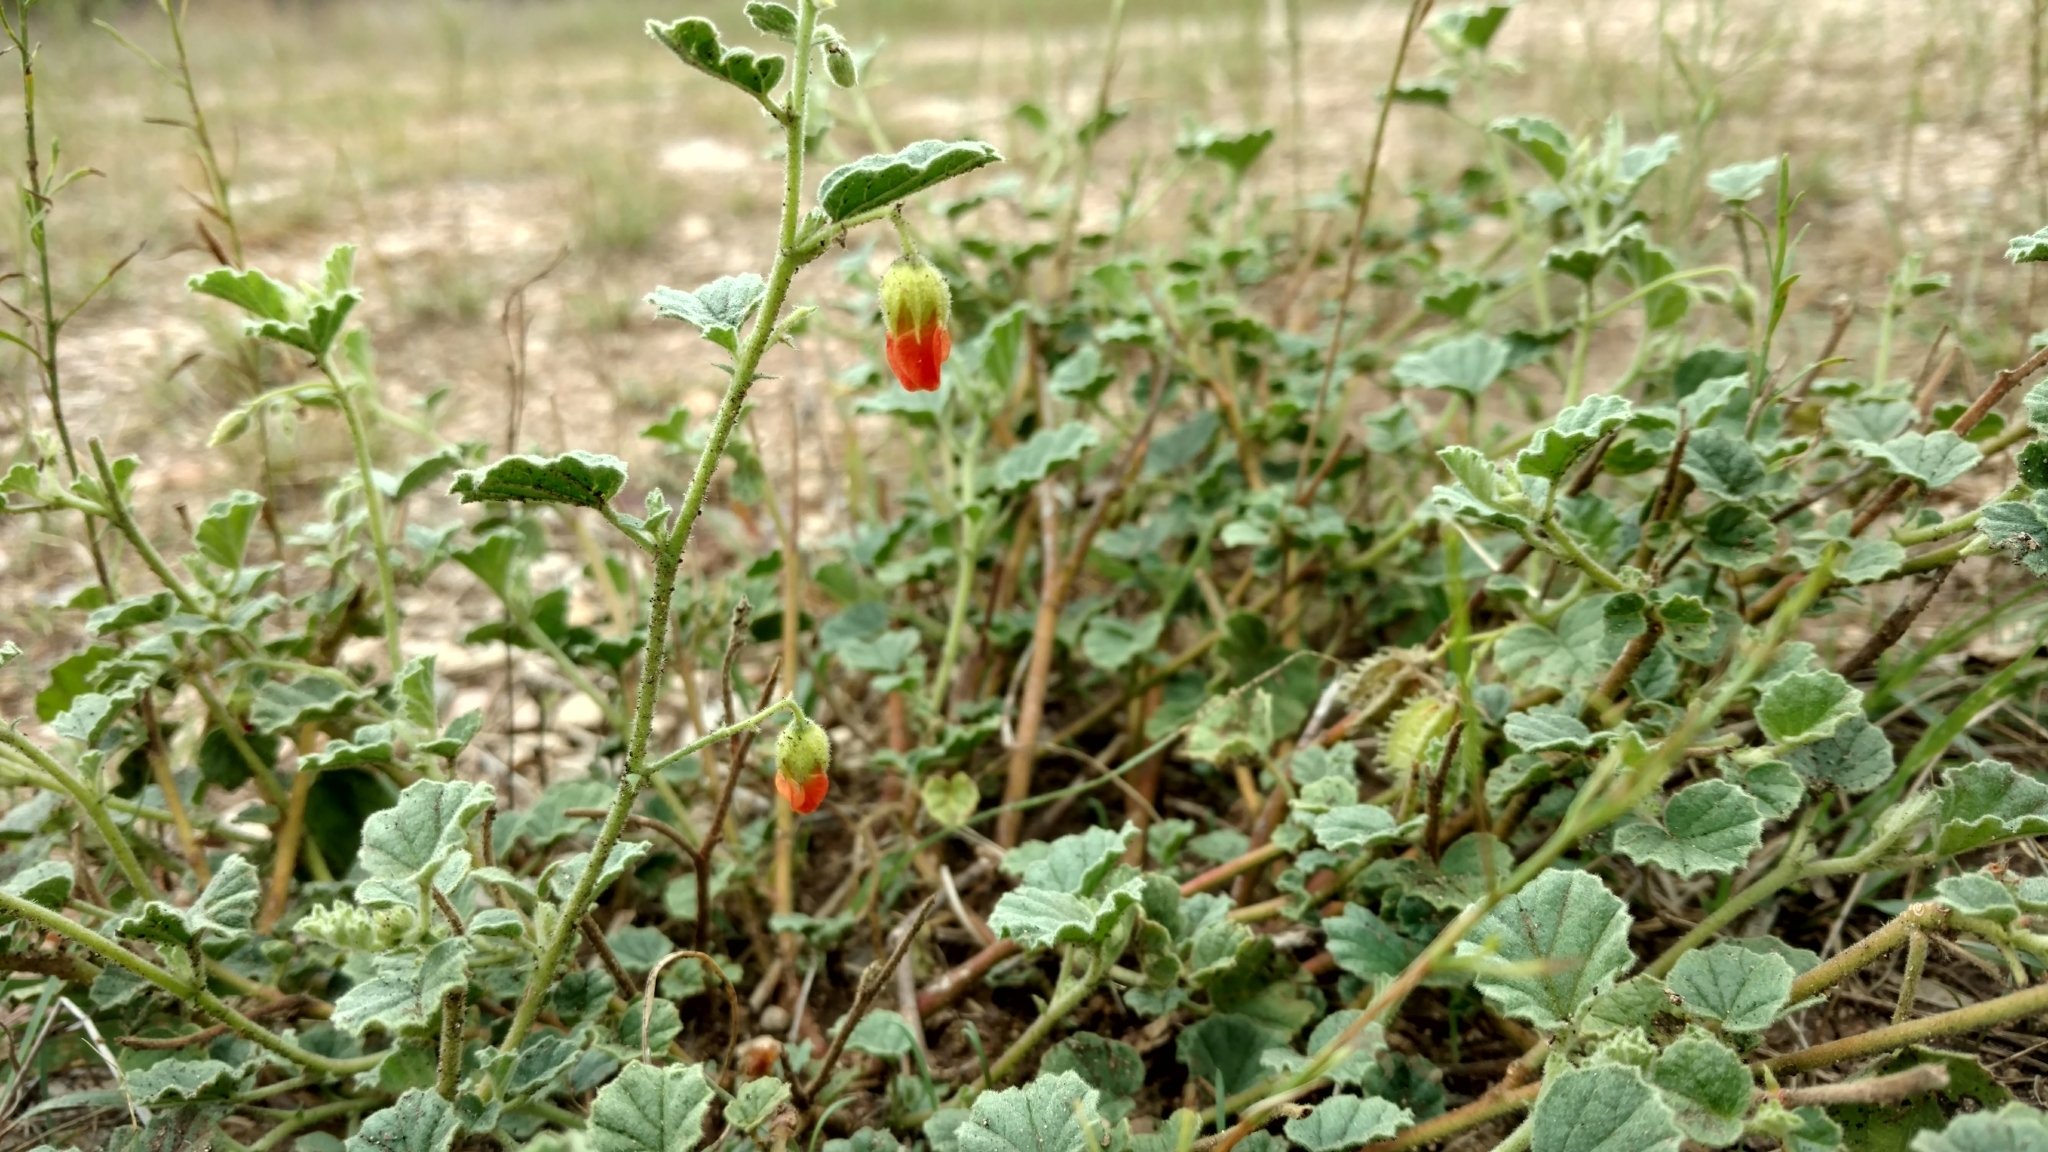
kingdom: Plantae
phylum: Tracheophyta
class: Magnoliopsida
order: Malvales
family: Malvaceae
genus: Hermannia
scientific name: Hermannia texana
